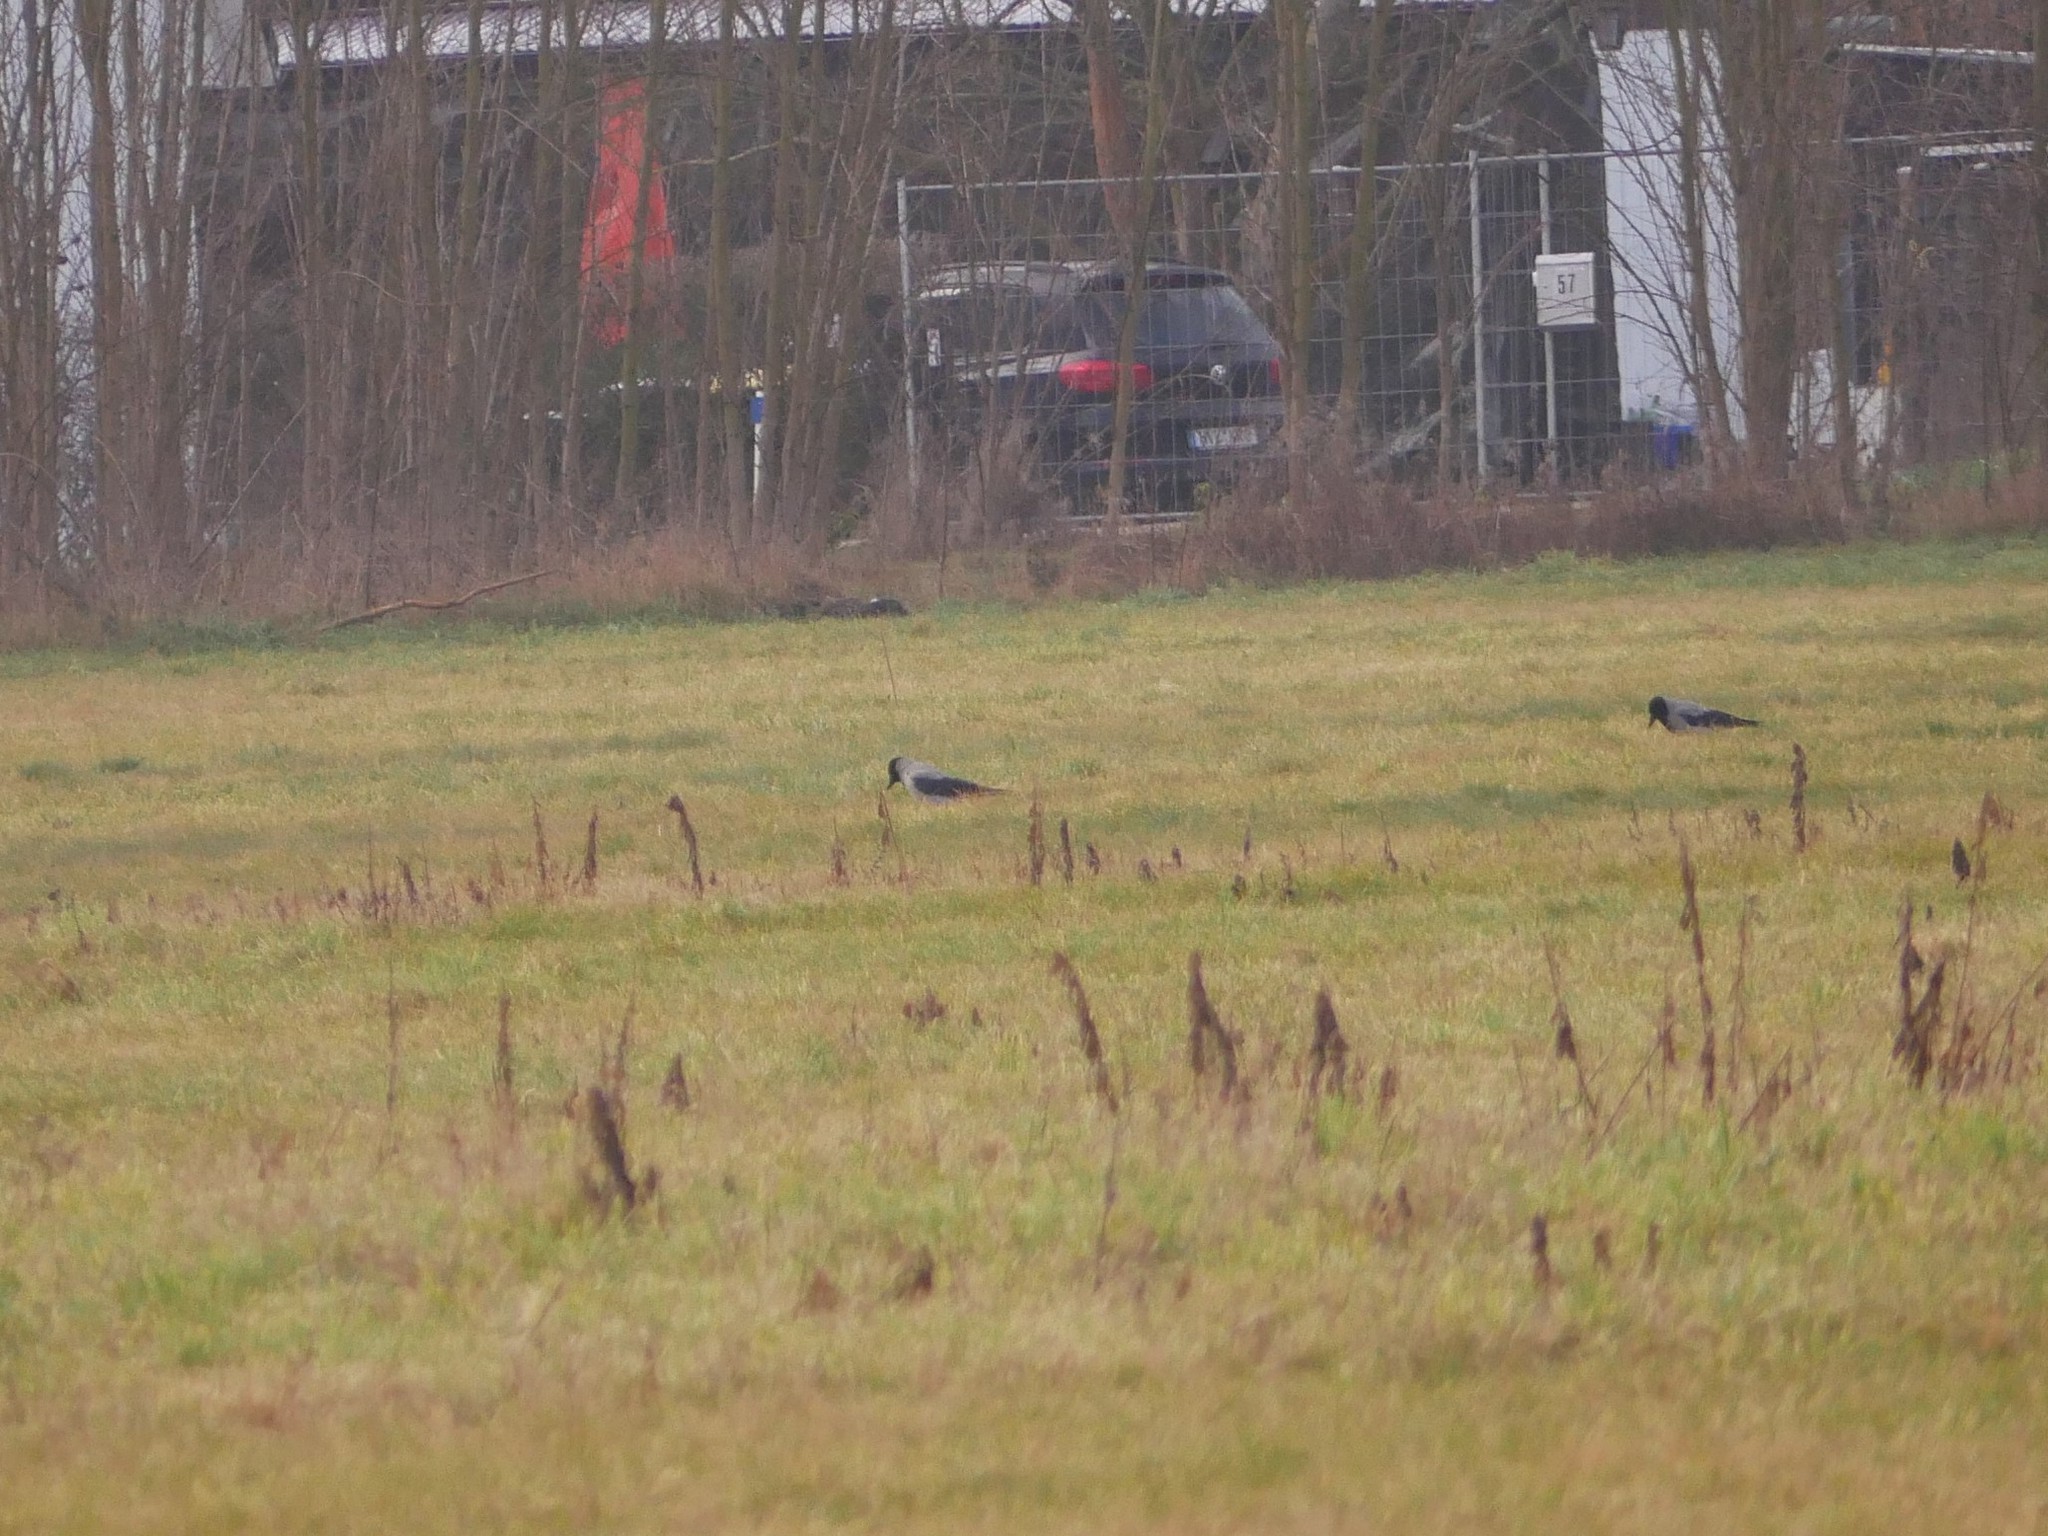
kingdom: Animalia
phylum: Chordata
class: Aves
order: Passeriformes
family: Corvidae
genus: Corvus
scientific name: Corvus cornix
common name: Hooded crow
